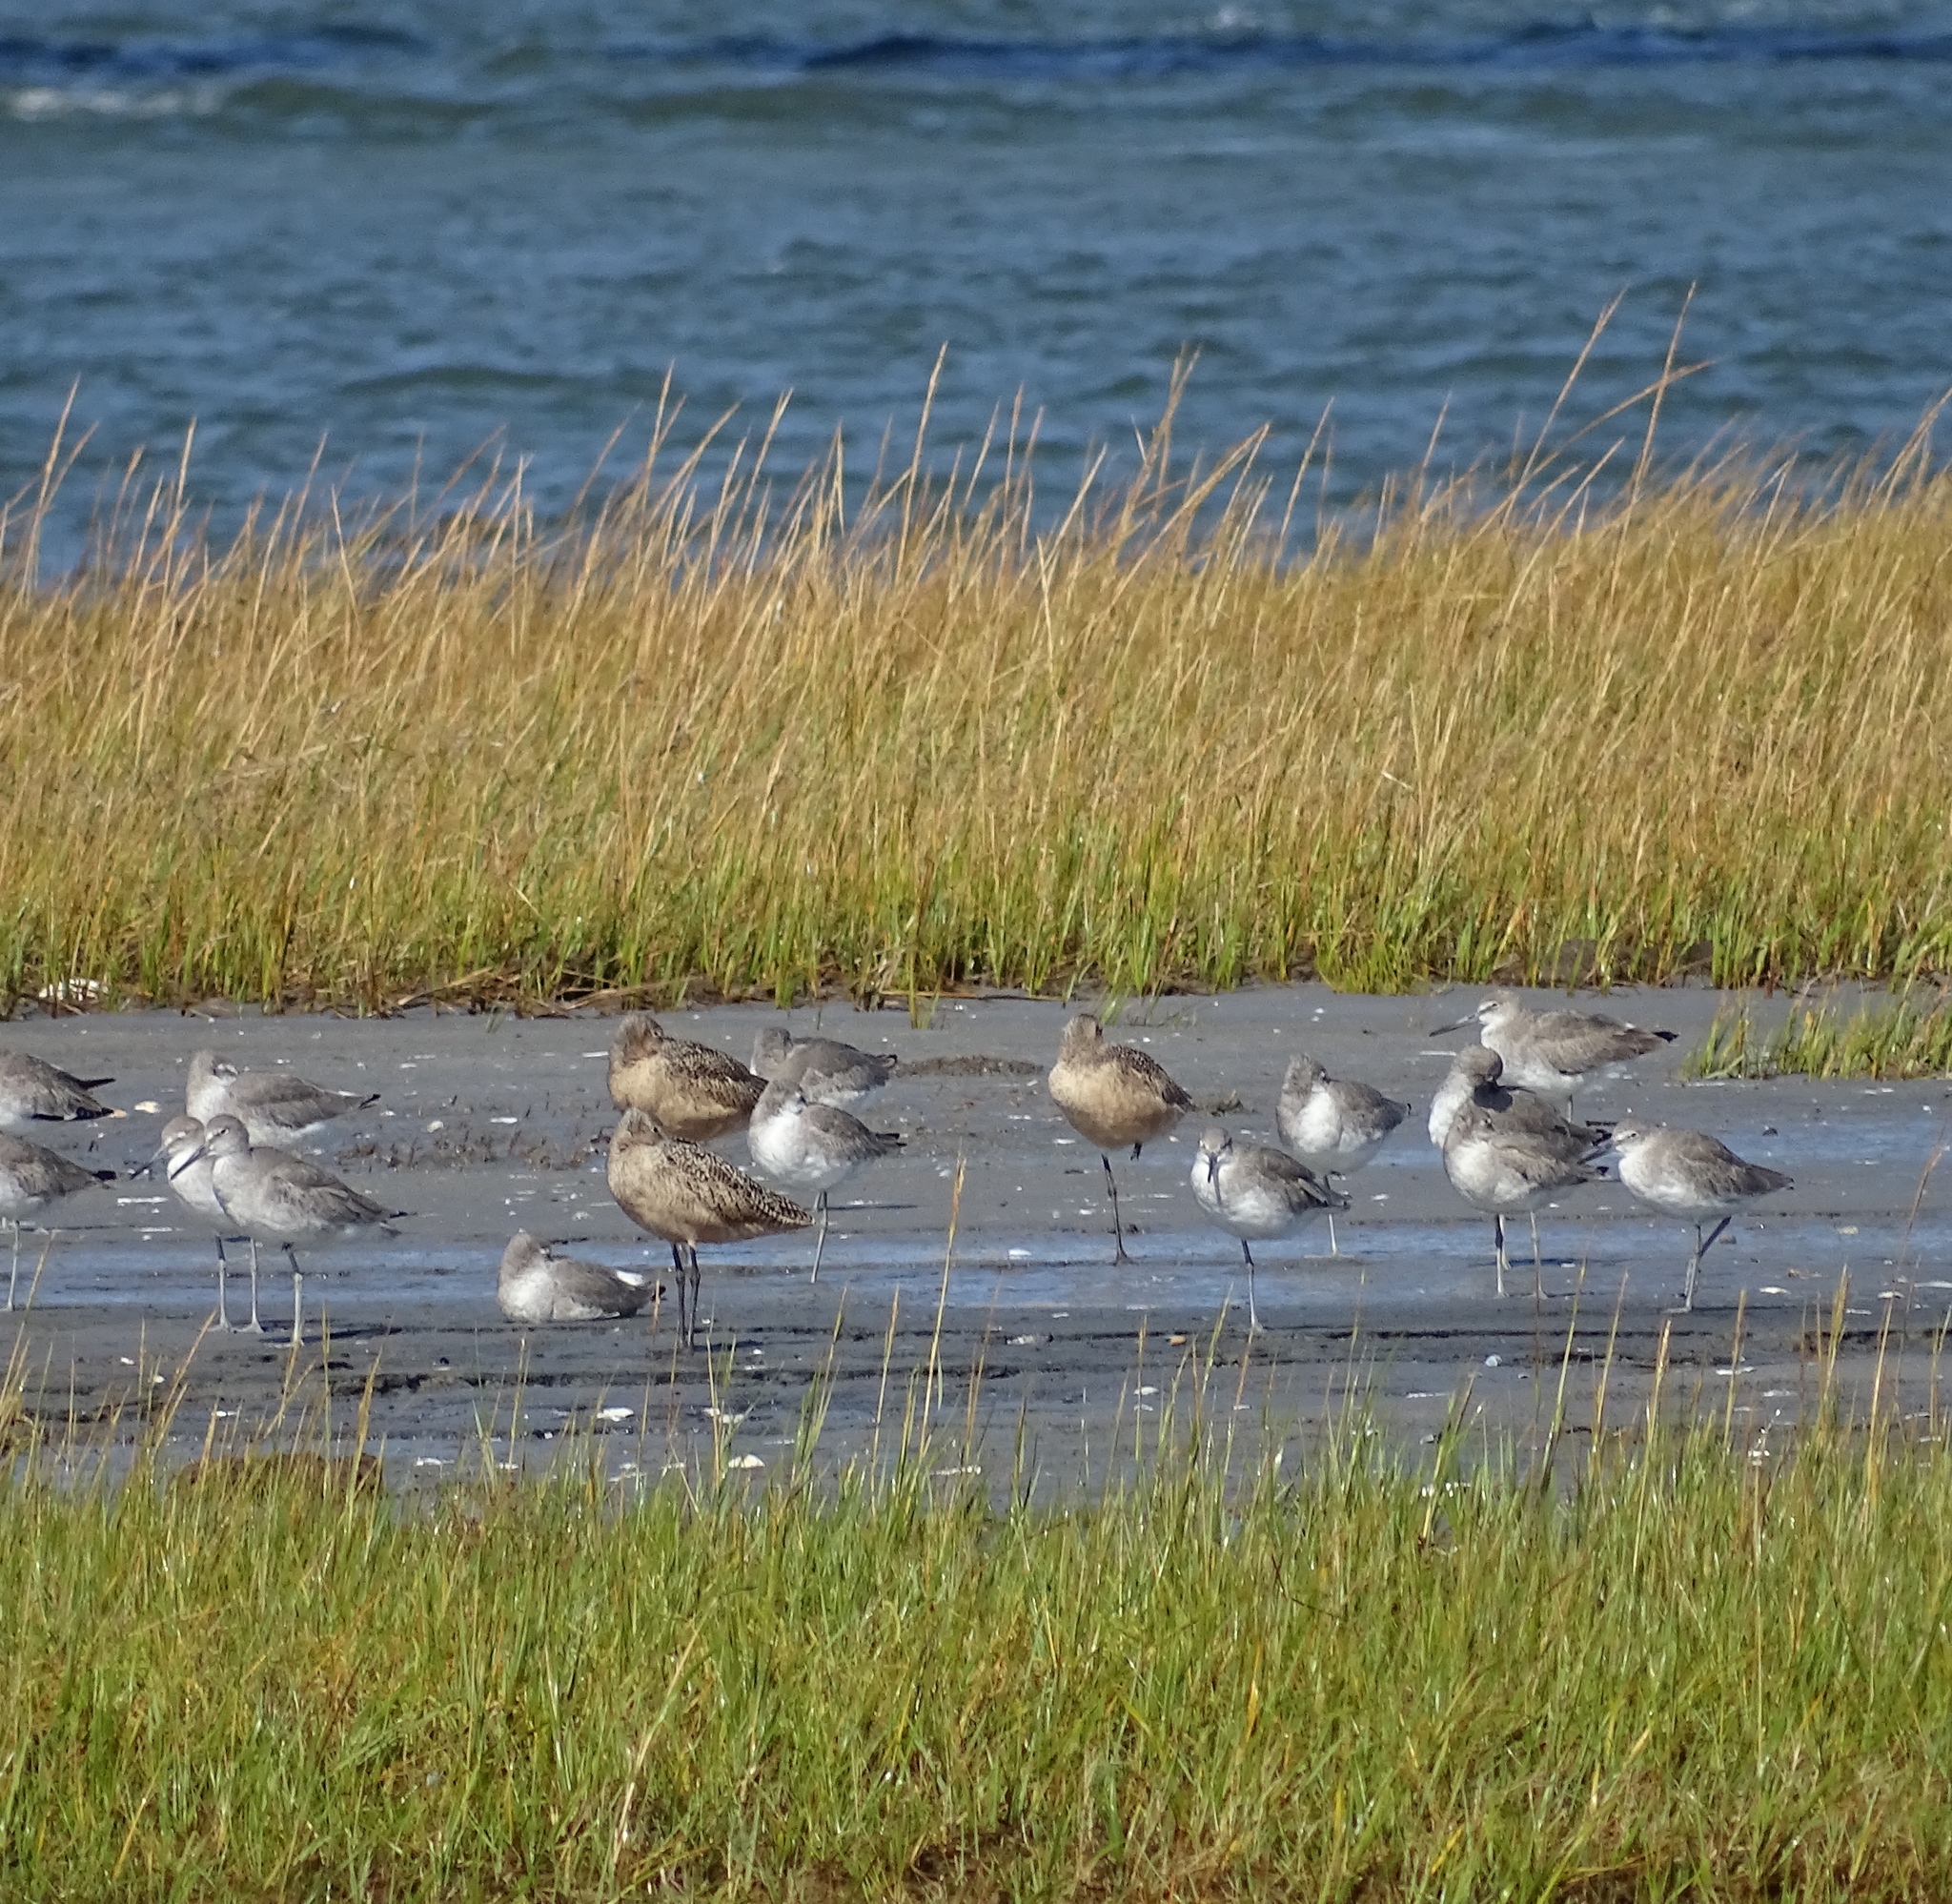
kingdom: Animalia
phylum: Chordata
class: Aves
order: Charadriiformes
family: Scolopacidae
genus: Limosa
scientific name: Limosa fedoa
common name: Marbled godwit
